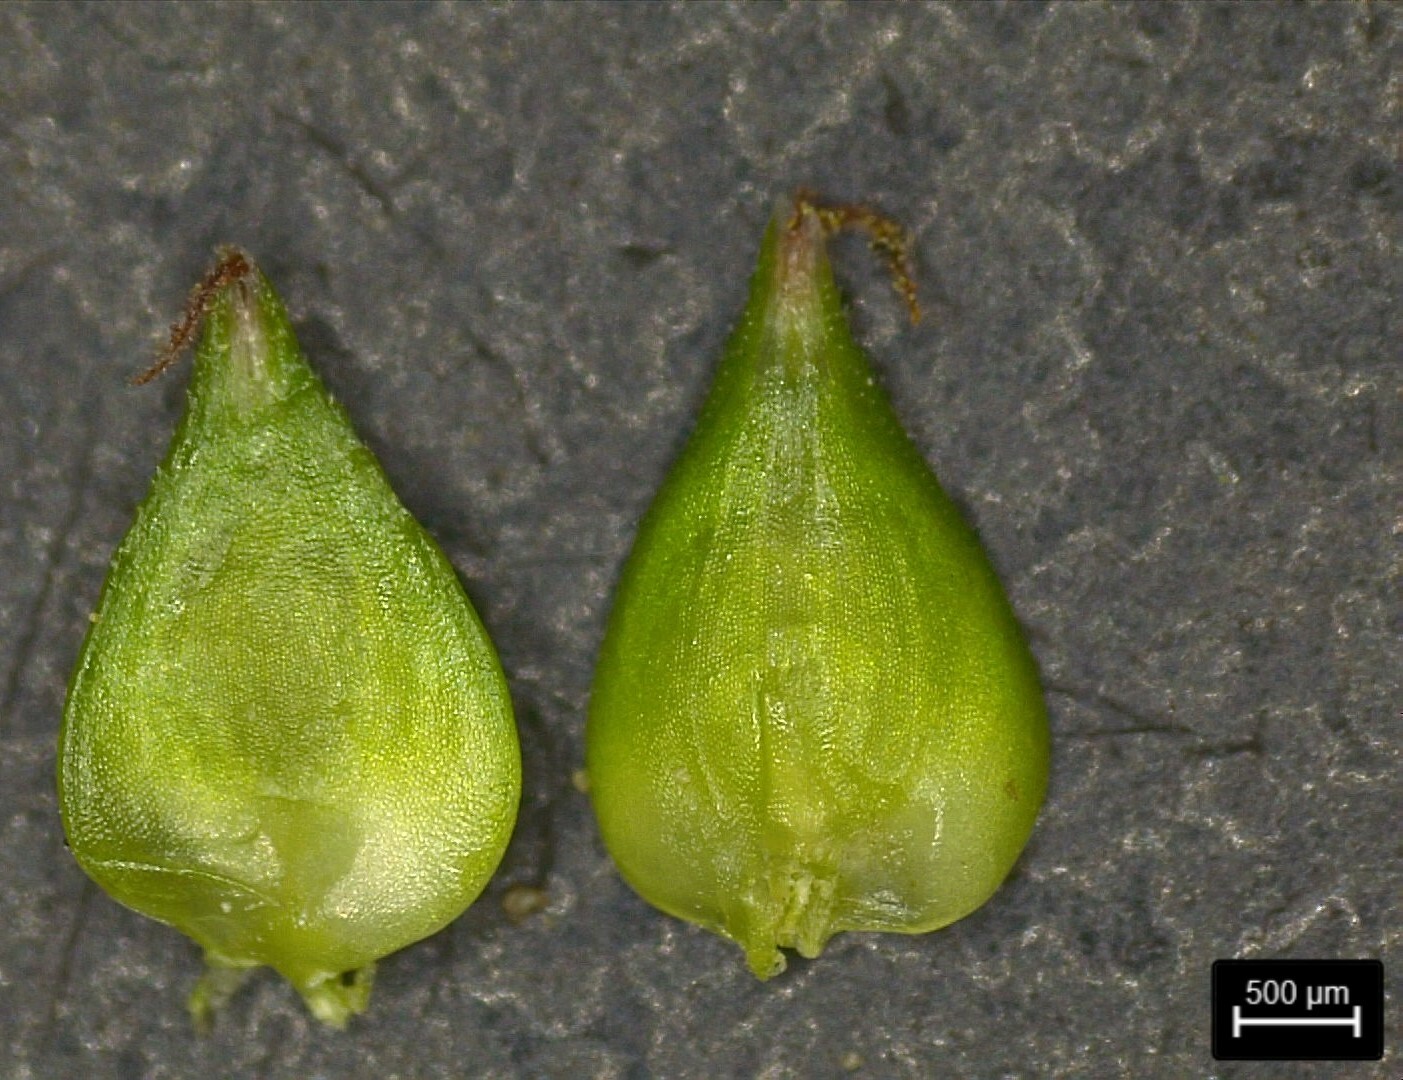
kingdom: Plantae
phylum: Tracheophyta
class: Liliopsida
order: Poales
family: Cyperaceae
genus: Carex
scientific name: Carex leavenworthii
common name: Leavenworth's bracted sedge
